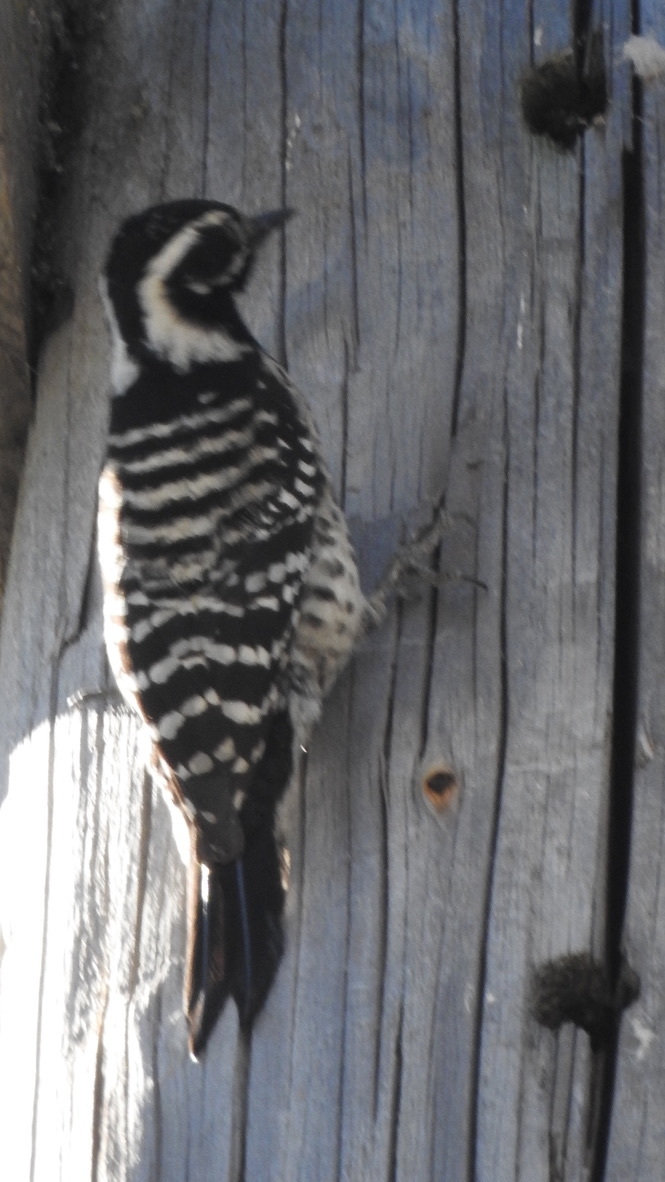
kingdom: Animalia
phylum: Chordata
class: Aves
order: Piciformes
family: Picidae
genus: Dryobates
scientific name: Dryobates nuttallii
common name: Nuttall's woodpecker
